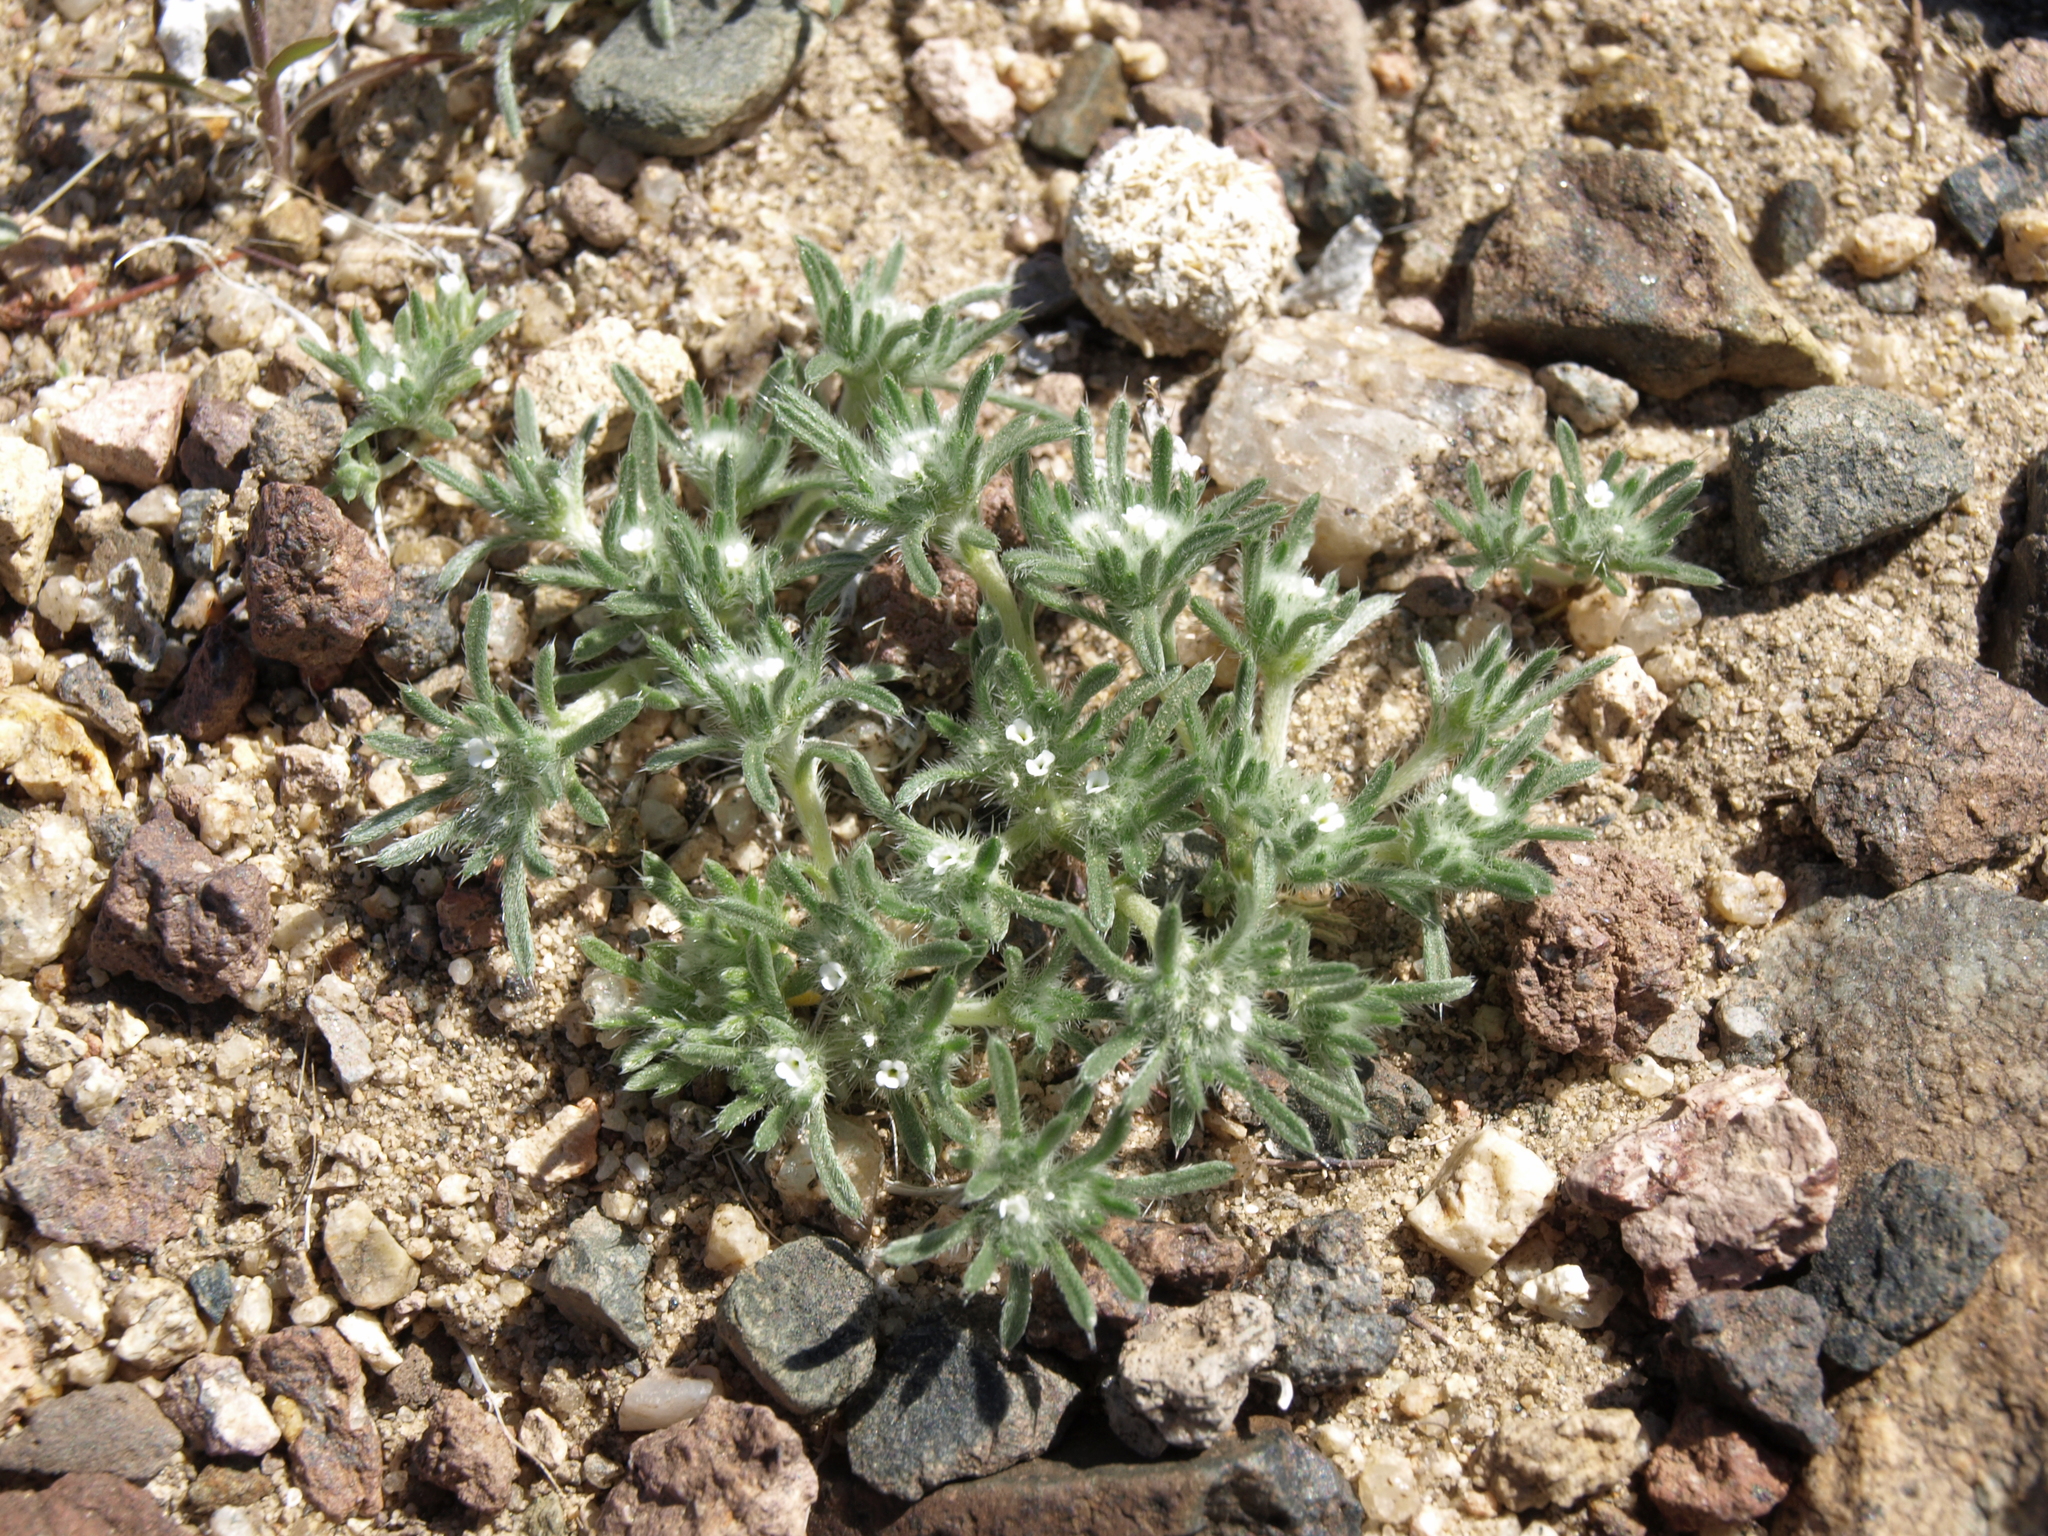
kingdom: Plantae
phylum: Tracheophyta
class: Magnoliopsida
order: Boraginales
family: Boraginaceae
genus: Greeneocharis
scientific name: Greeneocharis circumscissa
